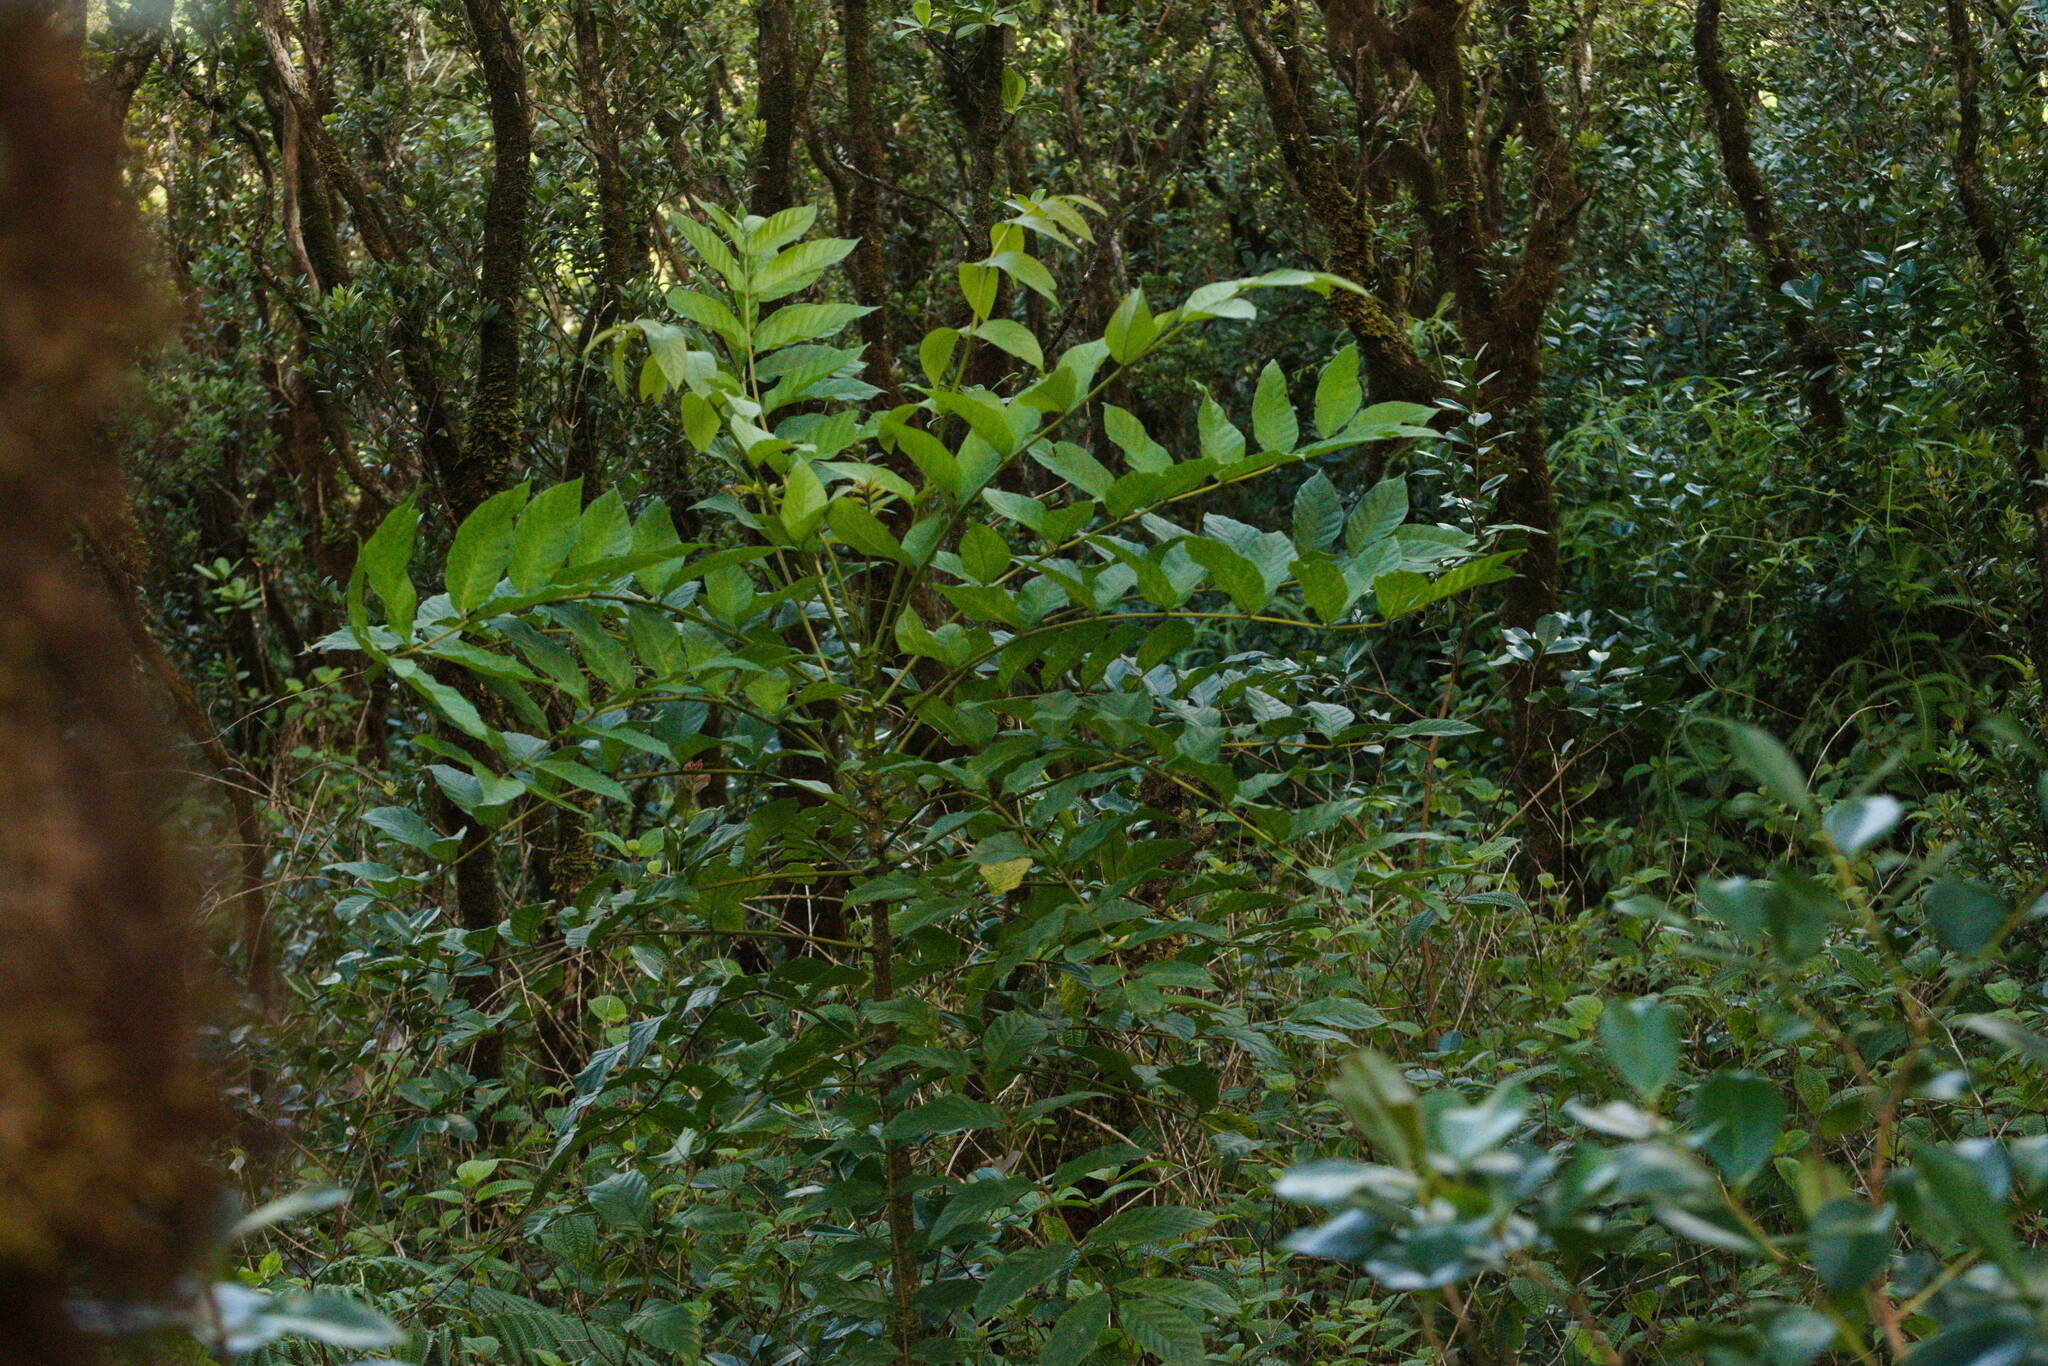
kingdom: Plantae
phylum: Tracheophyta
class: Magnoliopsida
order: Lamiales
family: Bignoniaceae
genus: Spathodea
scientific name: Spathodea campanulata
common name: African tuliptree
